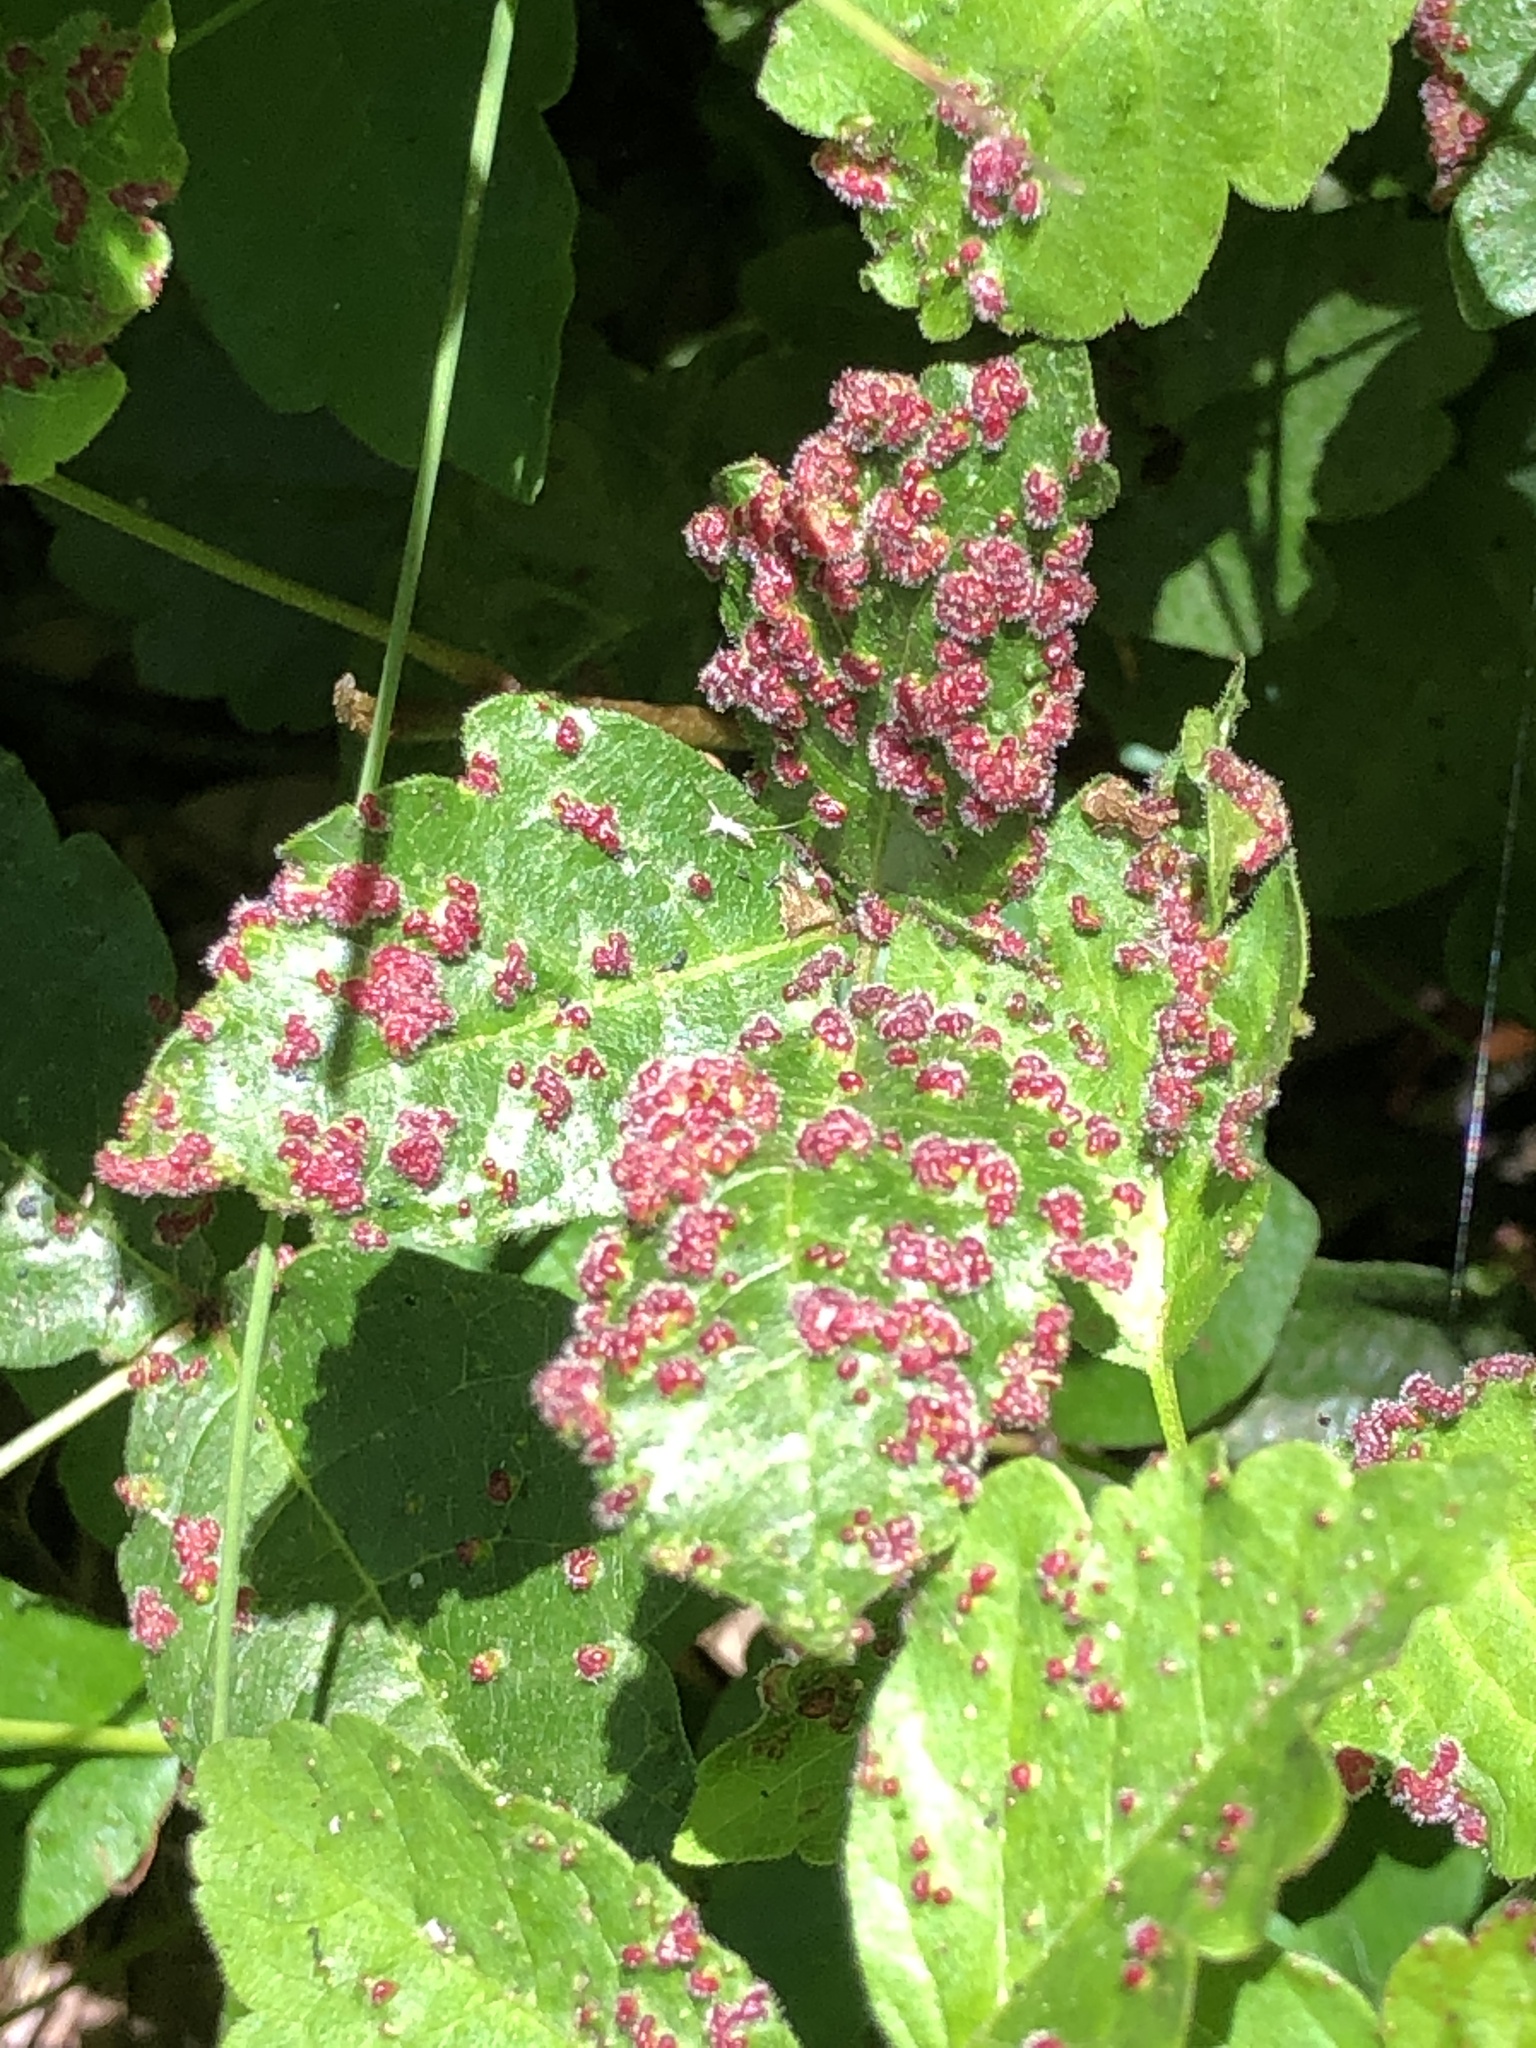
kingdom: Animalia
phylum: Arthropoda
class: Arachnida
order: Trombidiformes
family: Eriophyidae
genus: Aculops
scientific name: Aculops
